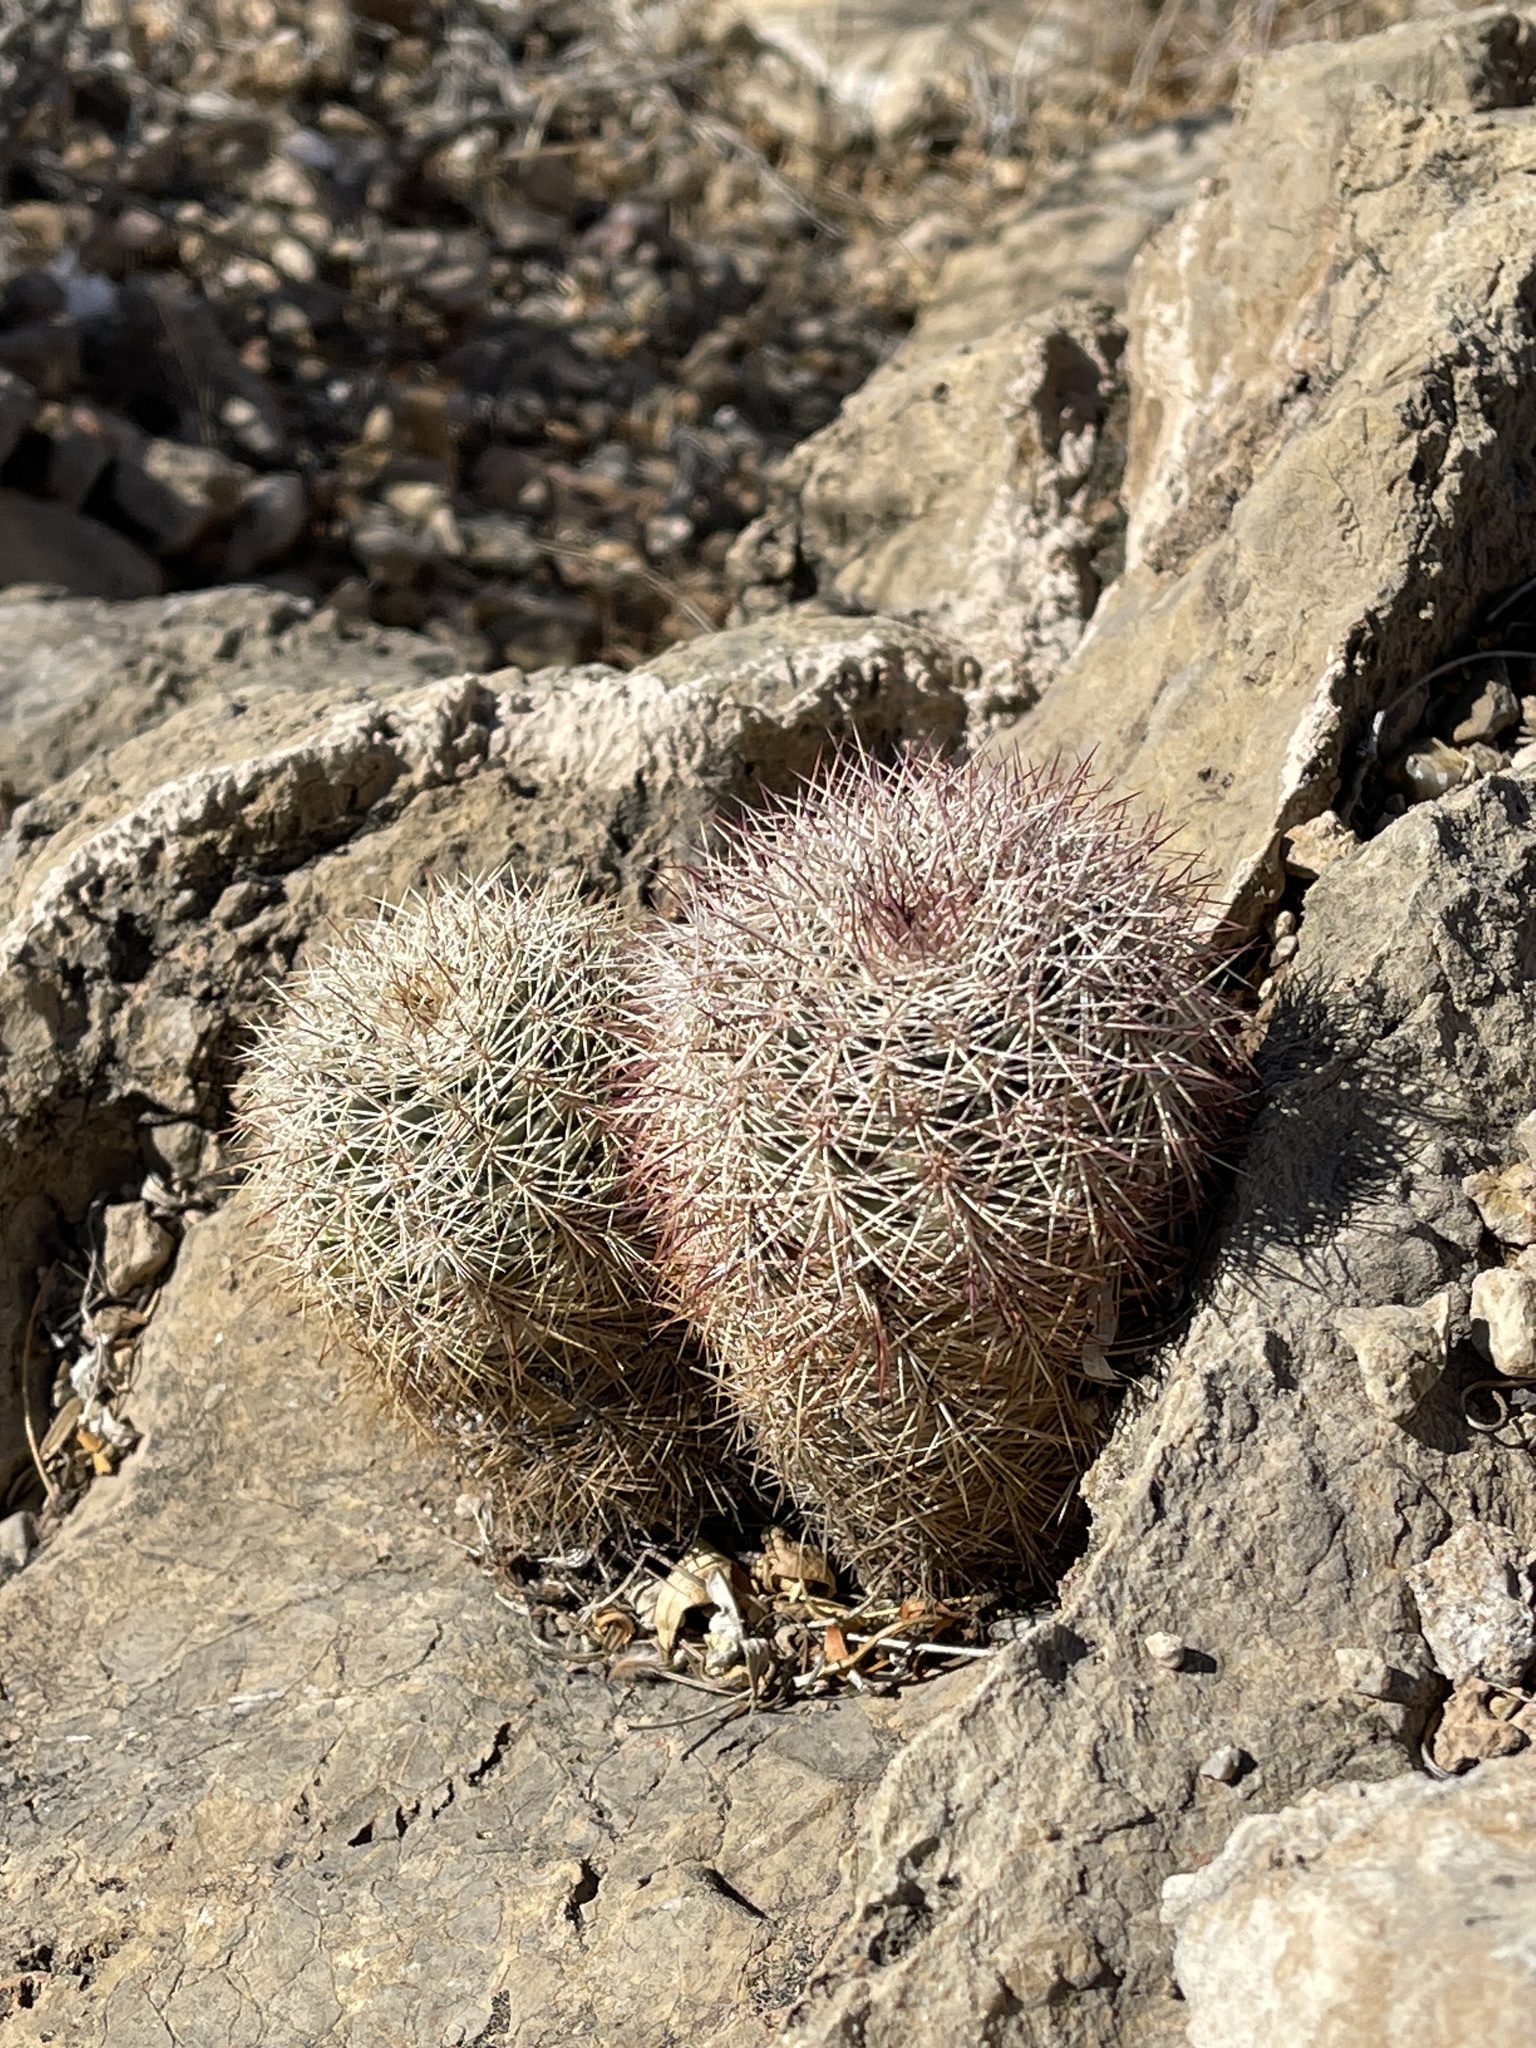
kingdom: Plantae
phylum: Tracheophyta
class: Magnoliopsida
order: Caryophyllales
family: Cactaceae
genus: Echinocereus
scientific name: Echinocereus dasyacanthus
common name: Spiny hedgehog cactus
